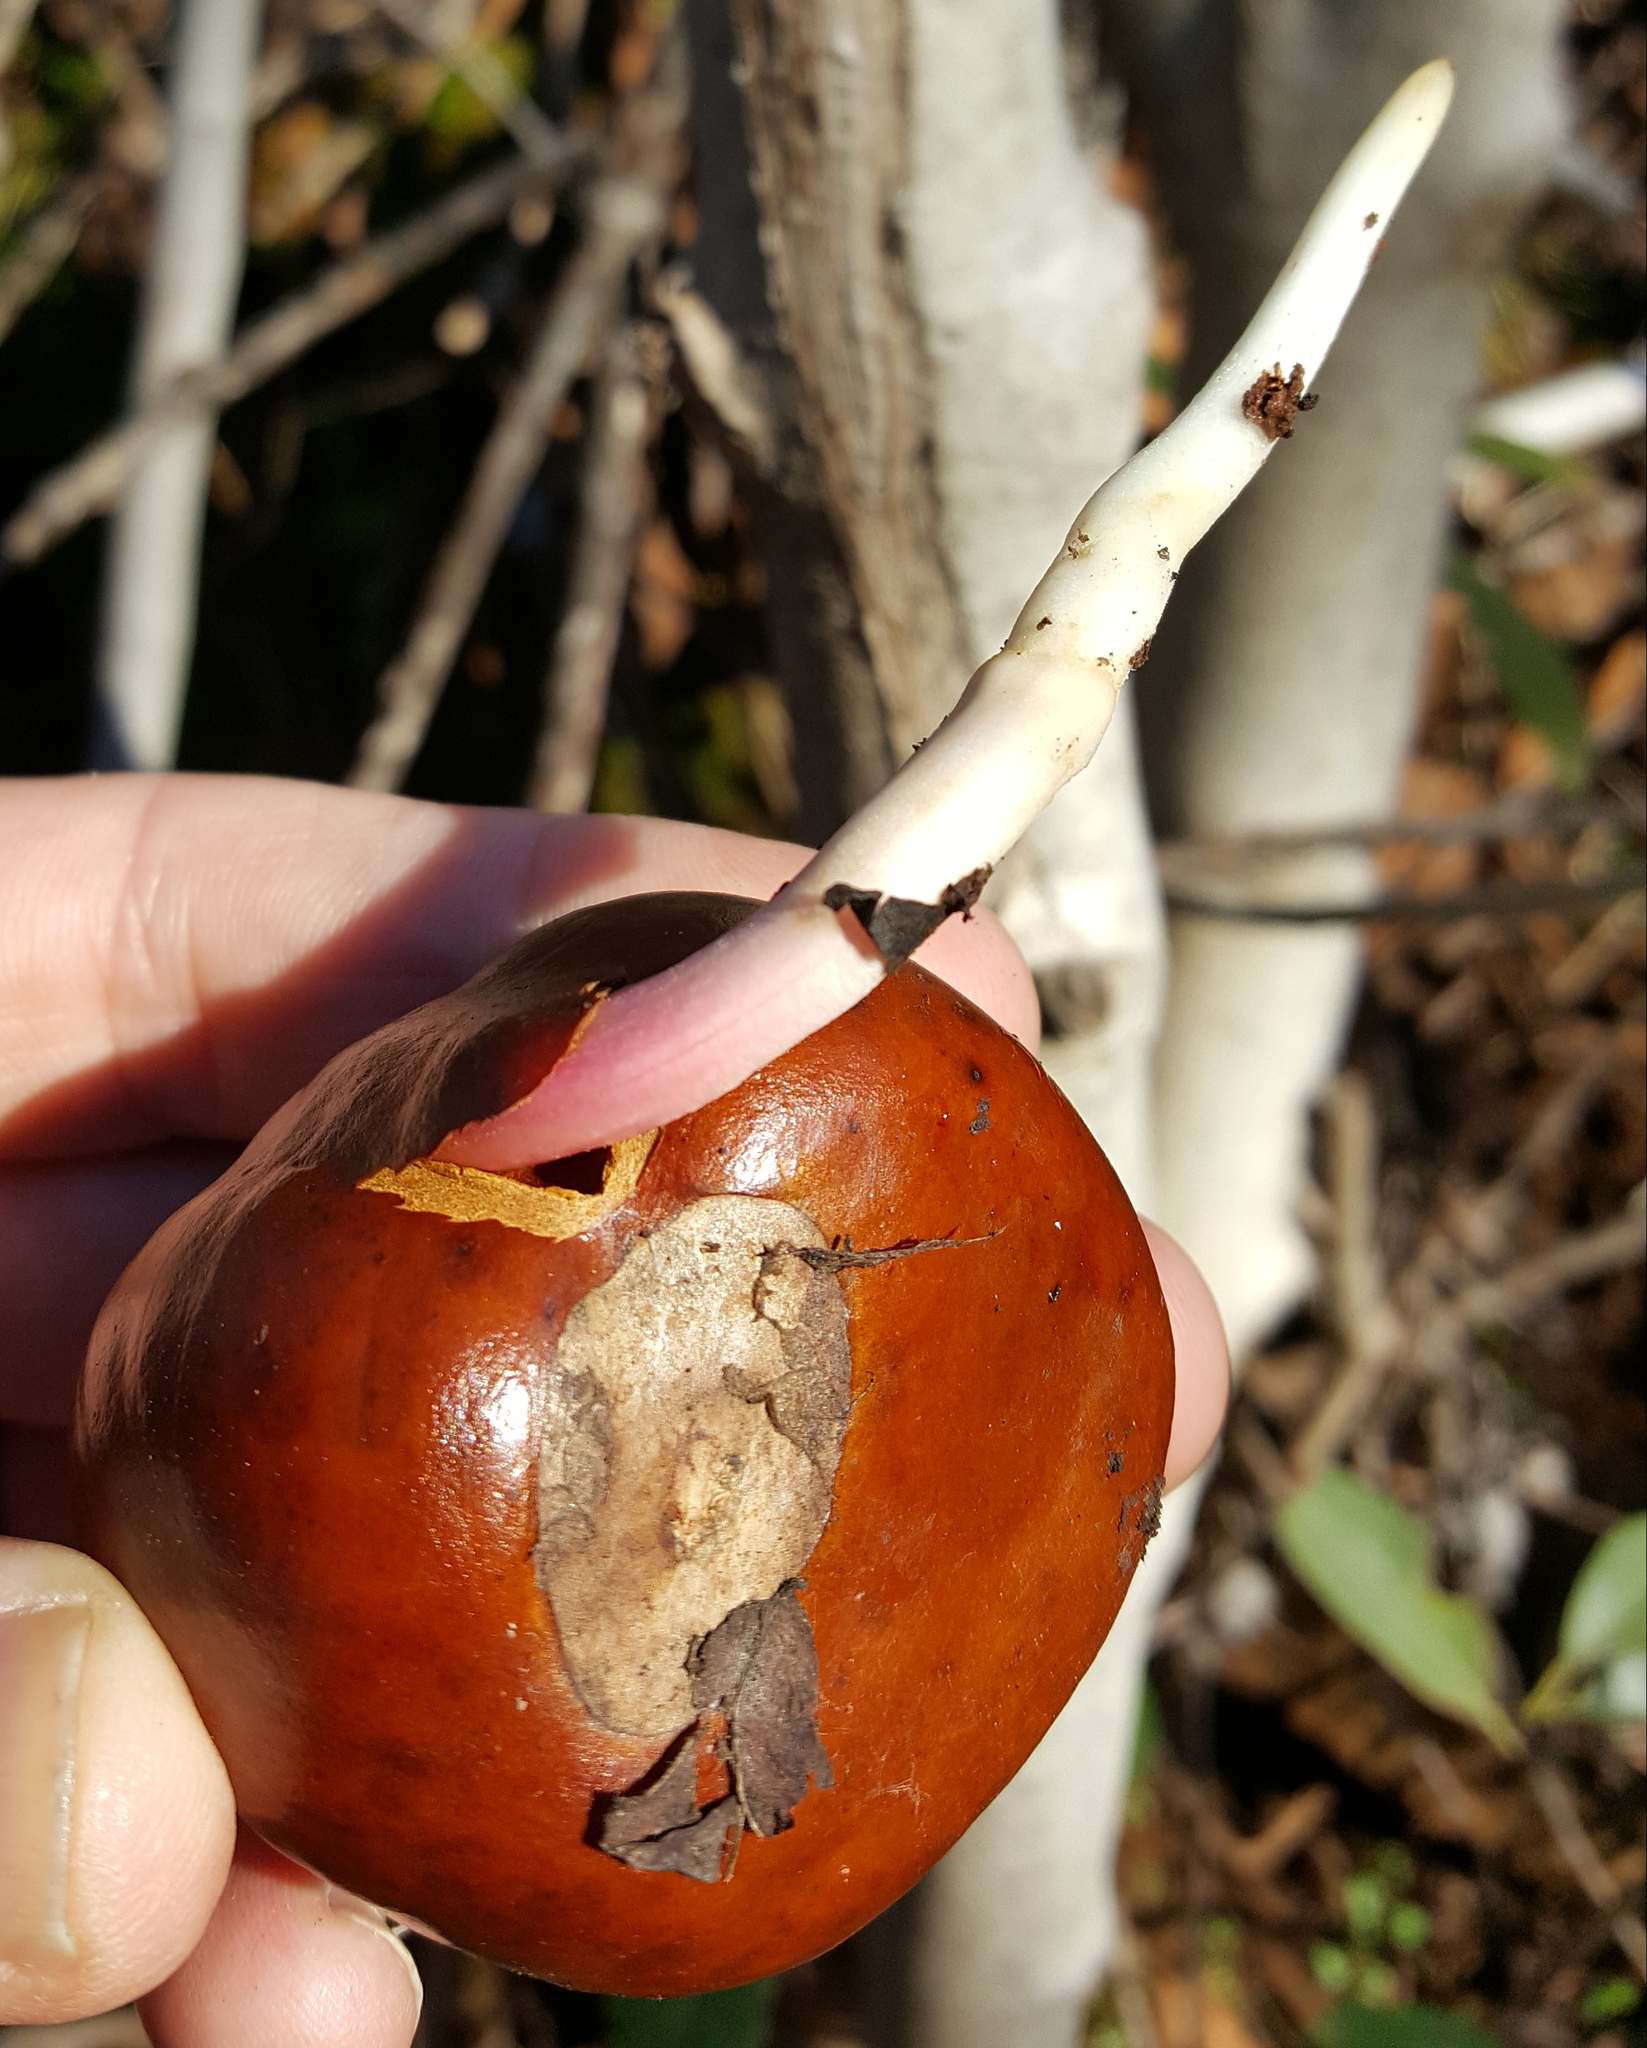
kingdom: Plantae
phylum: Tracheophyta
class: Magnoliopsida
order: Sapindales
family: Sapindaceae
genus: Aesculus
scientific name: Aesculus californica
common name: California buckeye
